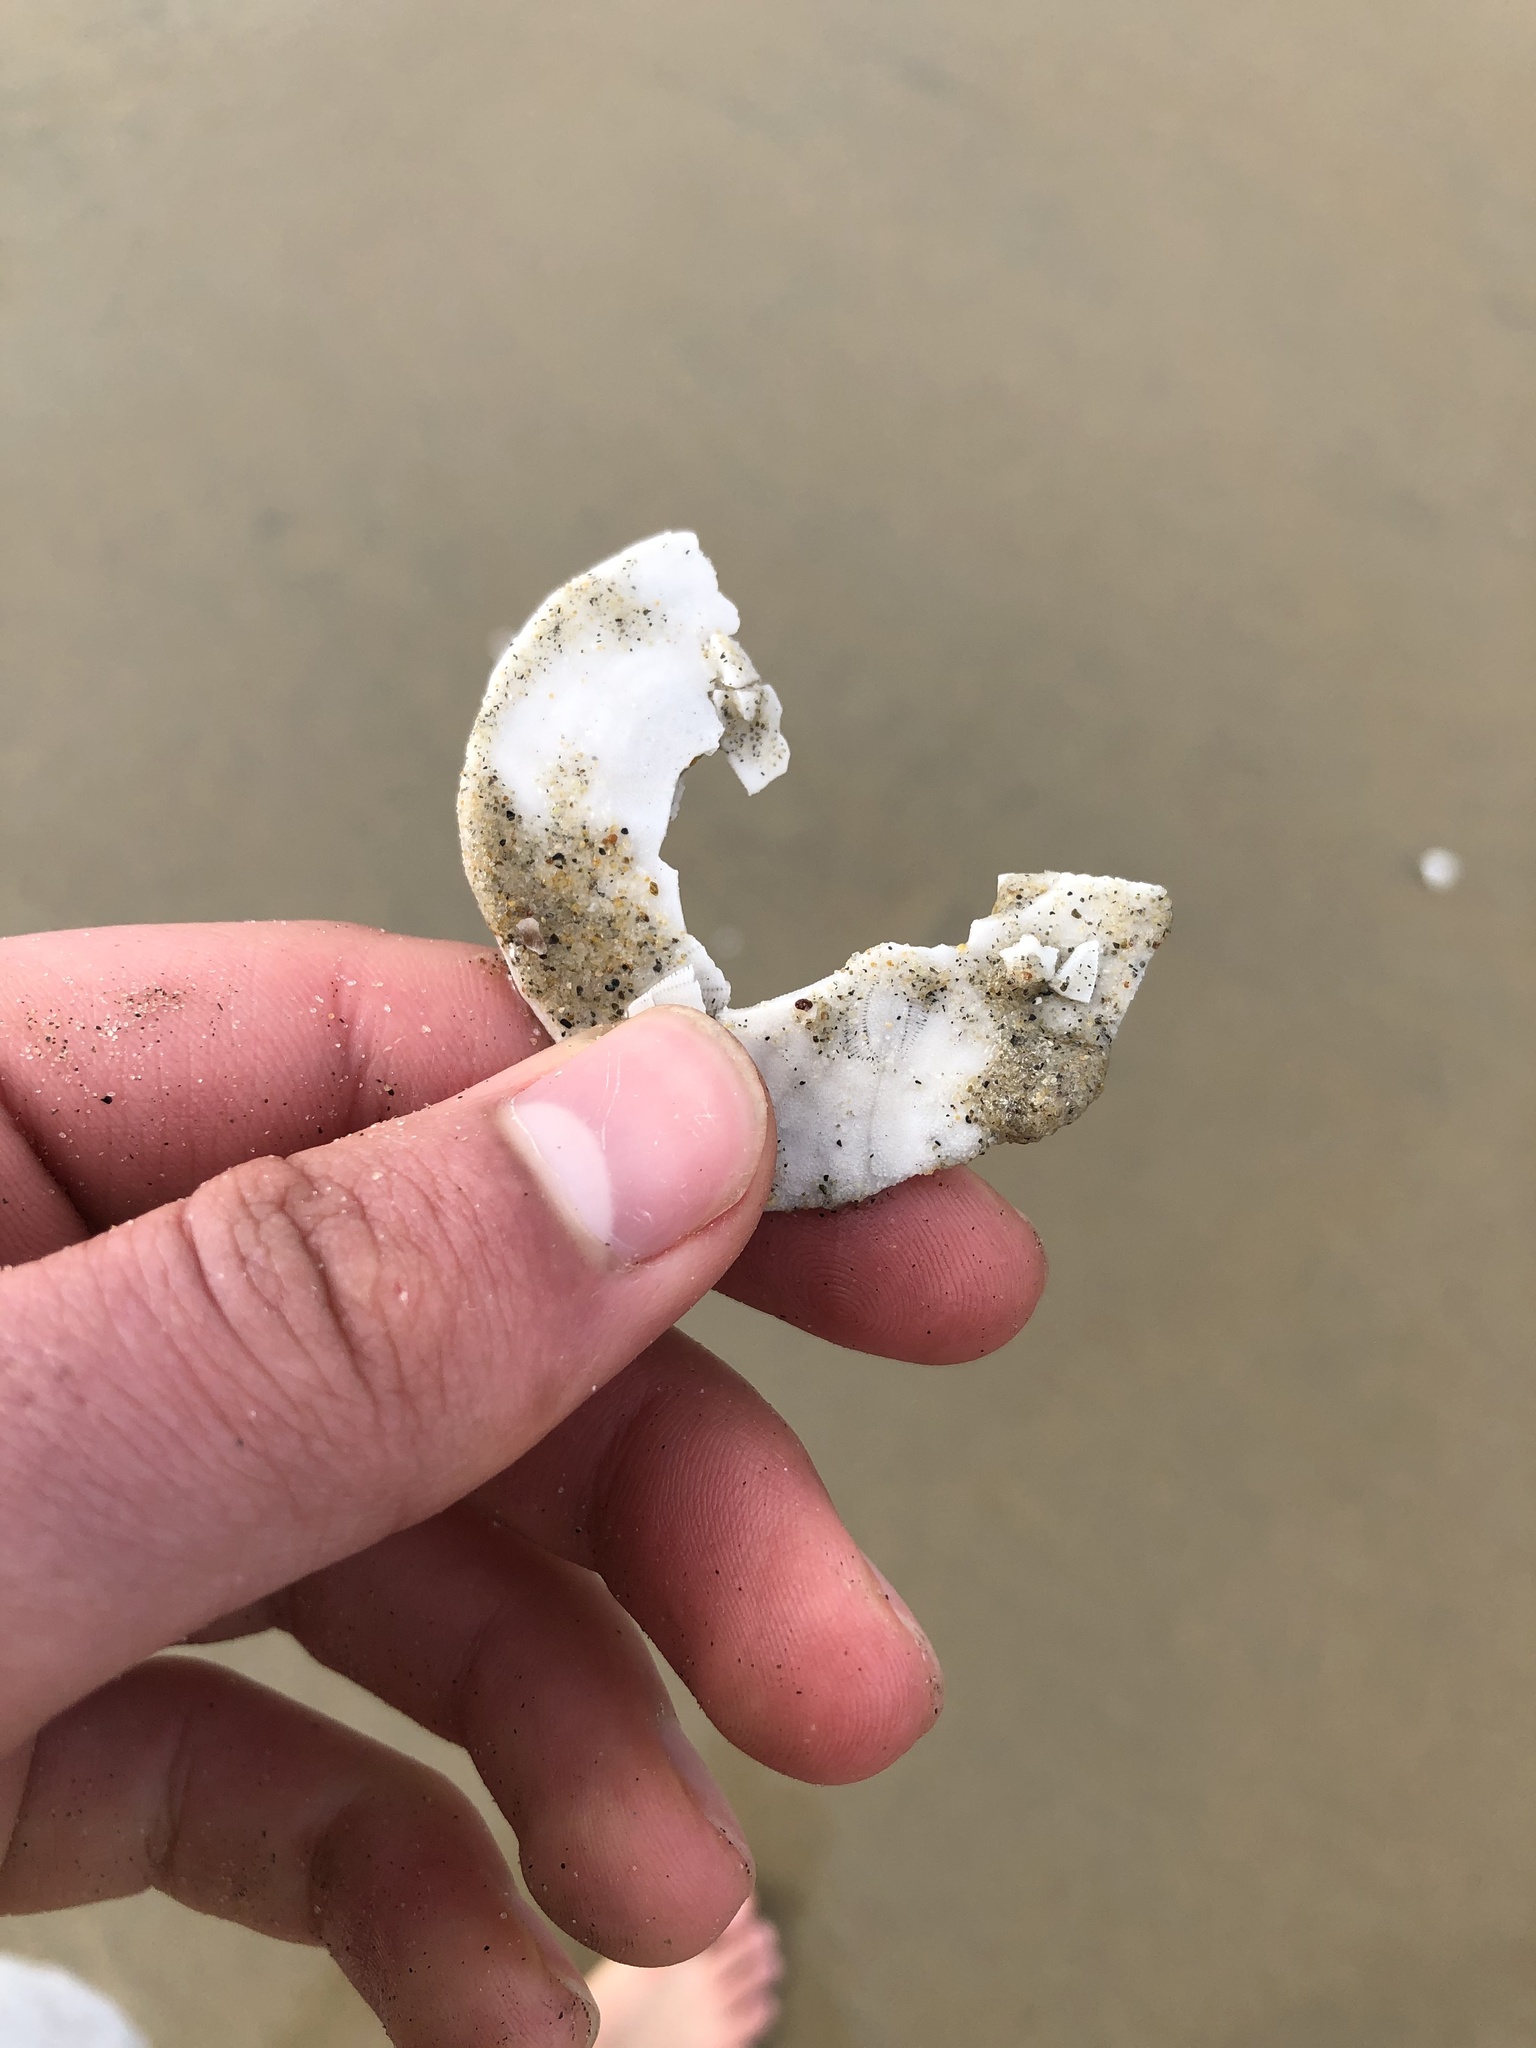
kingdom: Animalia
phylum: Echinodermata
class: Echinoidea
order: Echinolampadacea
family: Dendrasteridae
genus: Dendraster
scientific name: Dendraster excentricus
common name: Eccentric sand dollar sea urchin
